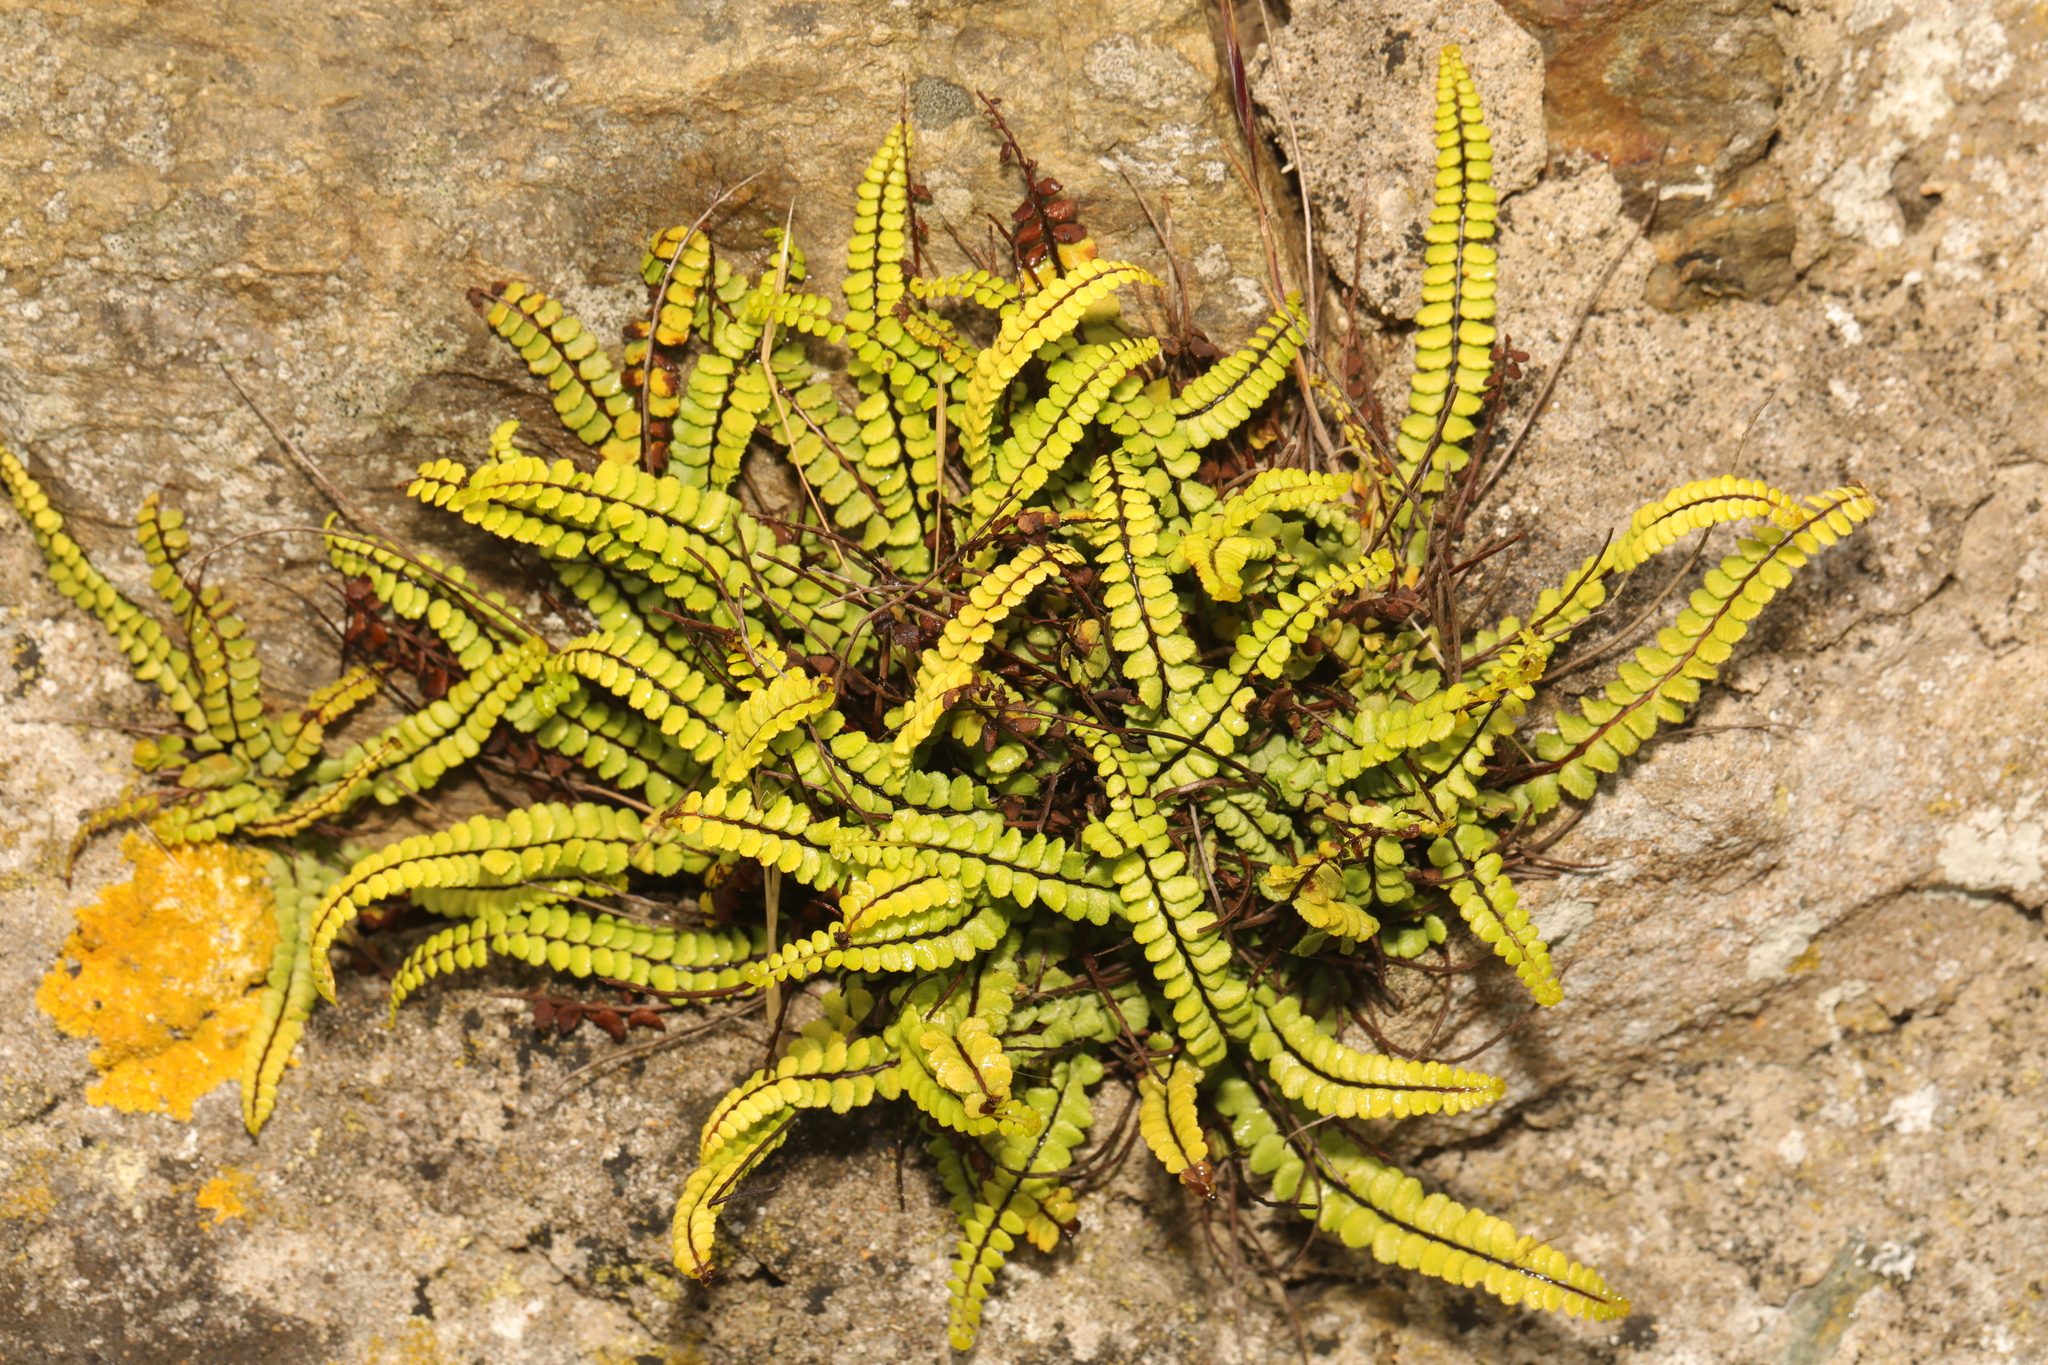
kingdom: Plantae
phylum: Tracheophyta
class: Polypodiopsida
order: Polypodiales
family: Aspleniaceae
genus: Asplenium
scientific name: Asplenium trichomanes
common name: Maidenhair spleenwort
